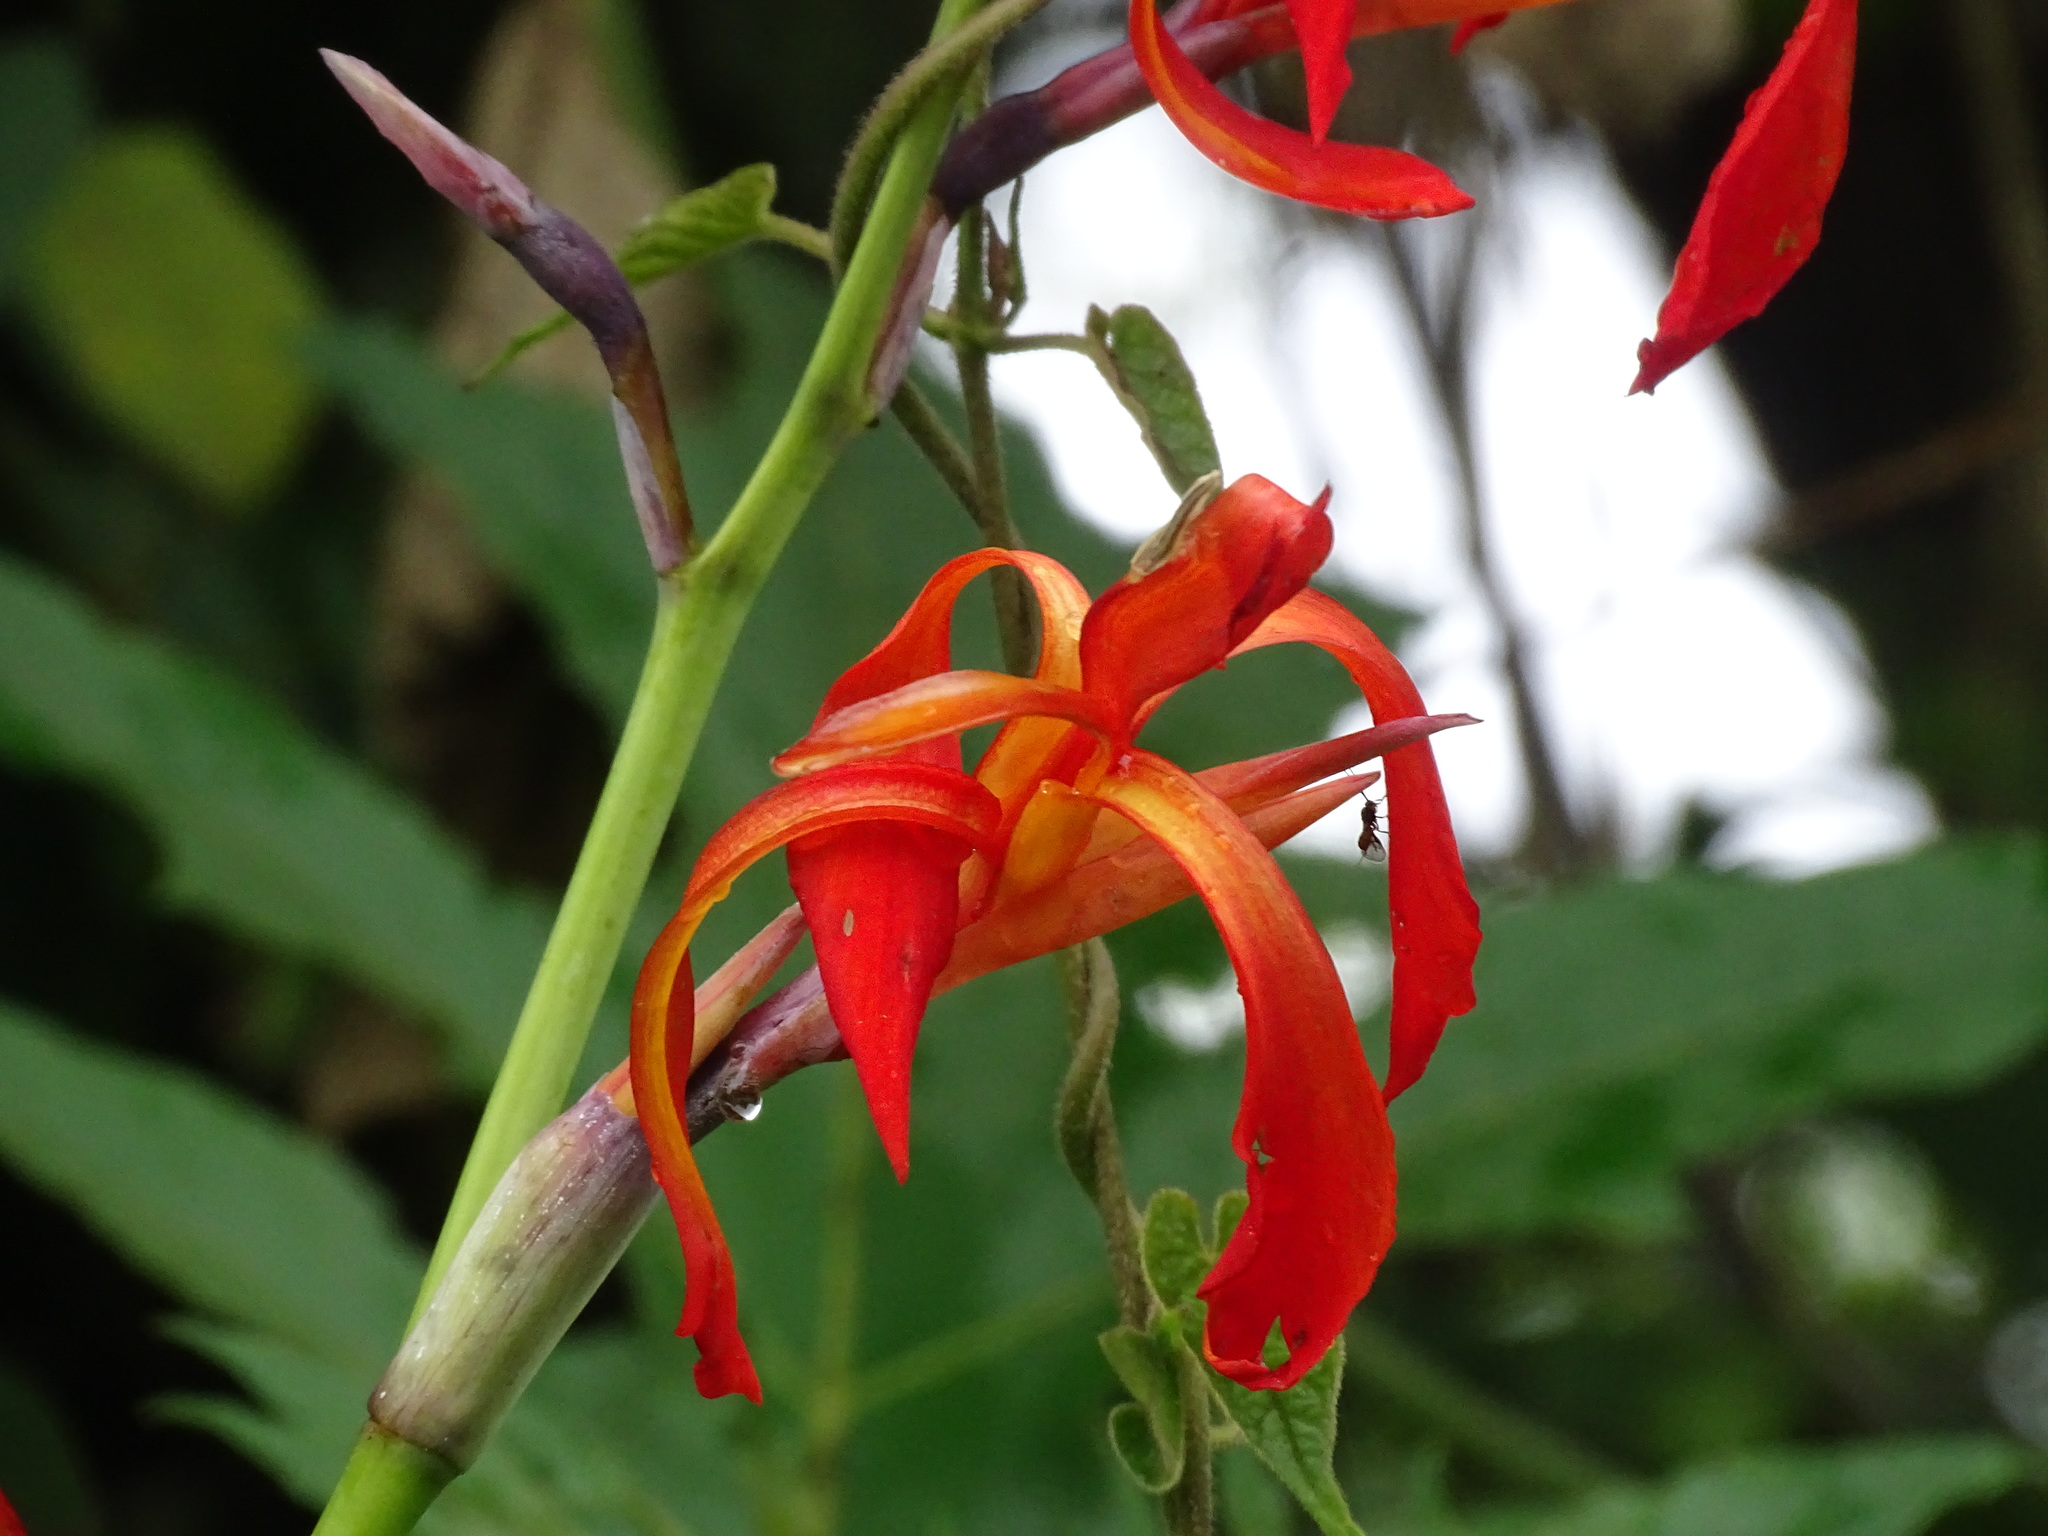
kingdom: Plantae
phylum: Tracheophyta
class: Liliopsida
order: Zingiberales
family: Cannaceae
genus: Canna
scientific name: Canna tuerckheimii
